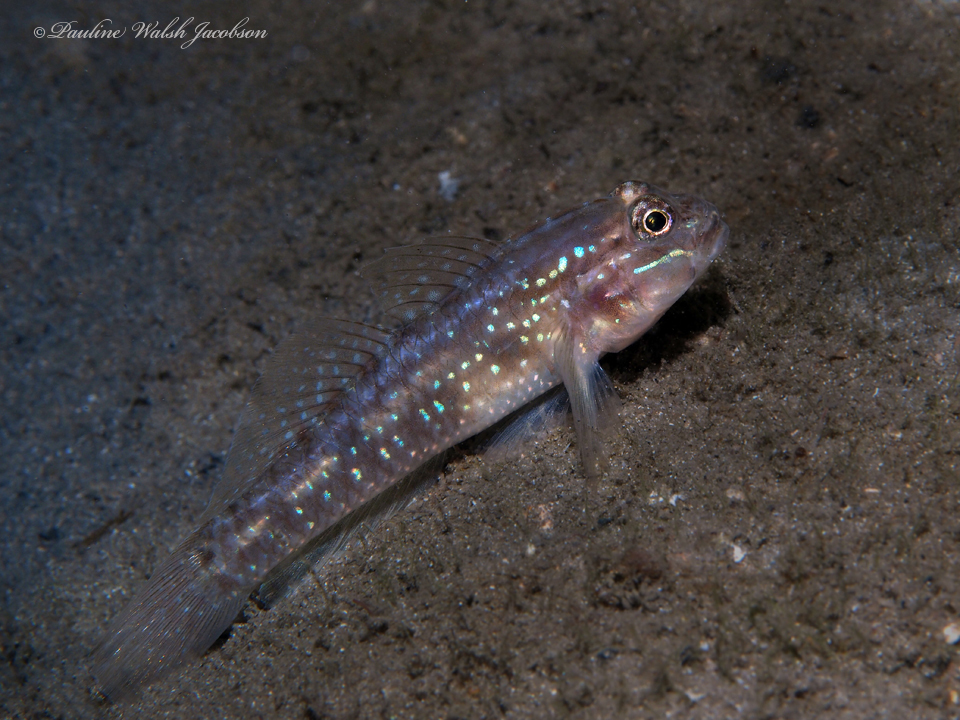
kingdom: Animalia
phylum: Chordata
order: Perciformes
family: Gobiidae
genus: Coryphopterus
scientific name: Coryphopterus glaucofraenum
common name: Bridled goby
